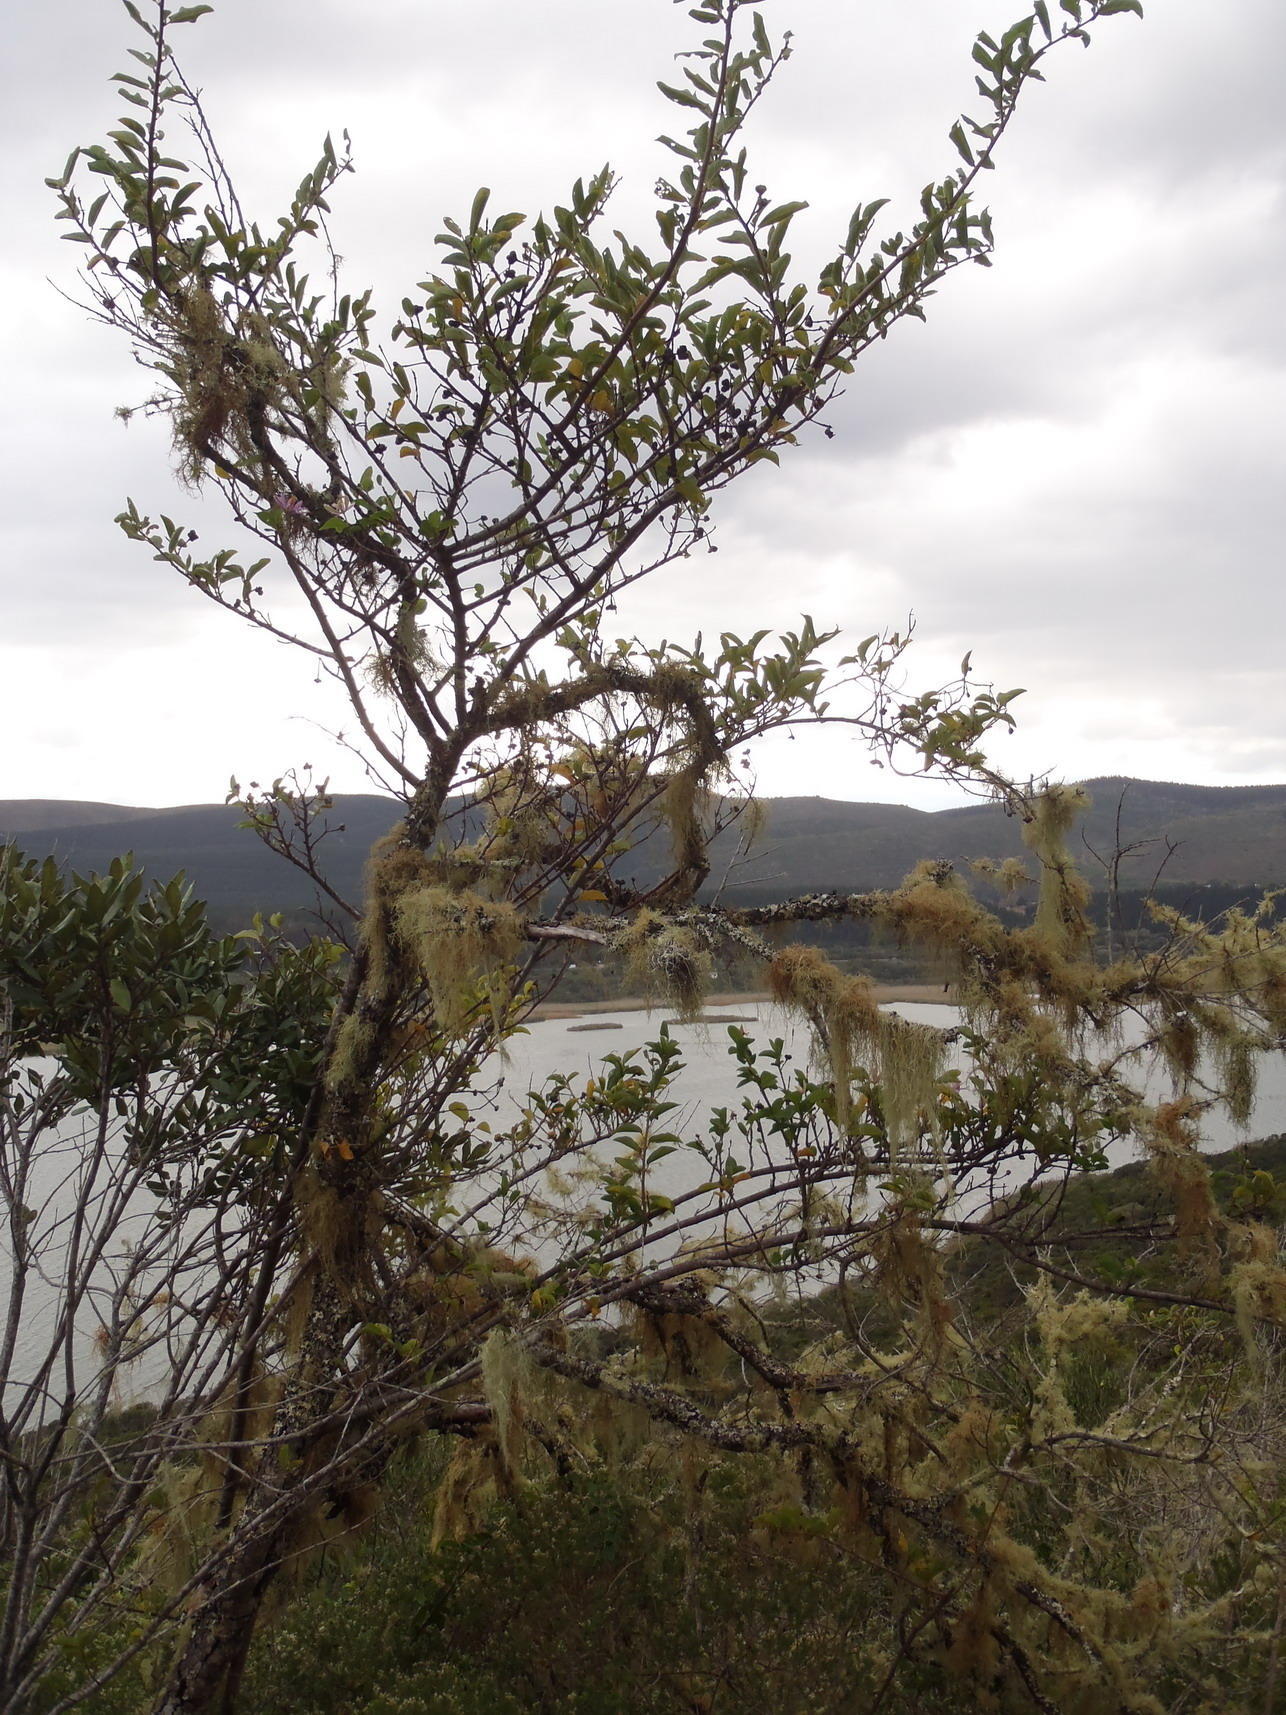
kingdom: Plantae
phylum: Tracheophyta
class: Magnoliopsida
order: Malvales
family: Malvaceae
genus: Grewia
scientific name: Grewia occidentalis
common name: Crossberry
